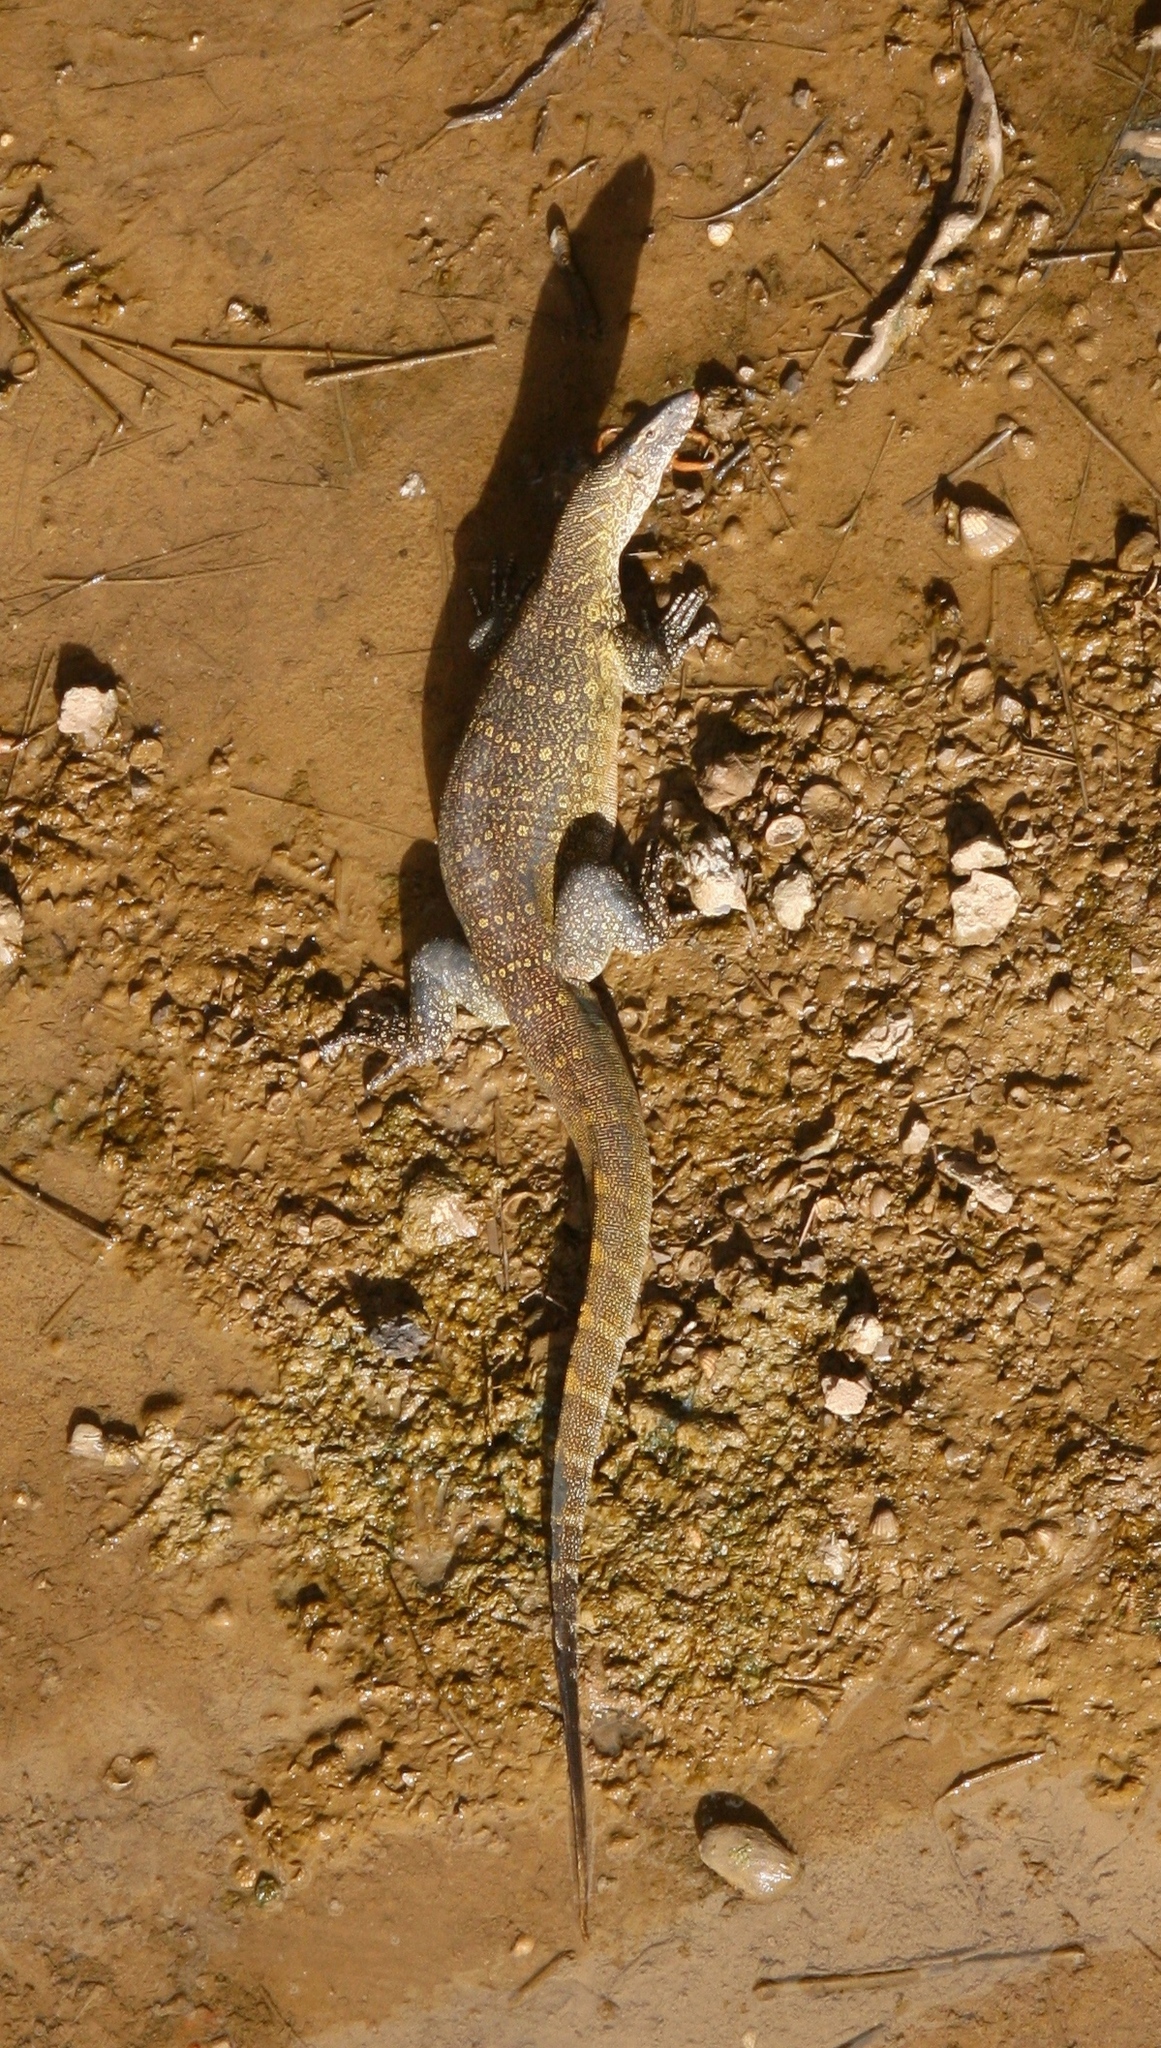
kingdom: Animalia
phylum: Chordata
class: Squamata
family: Varanidae
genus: Varanus
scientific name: Varanus niloticus
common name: Nile monitor
